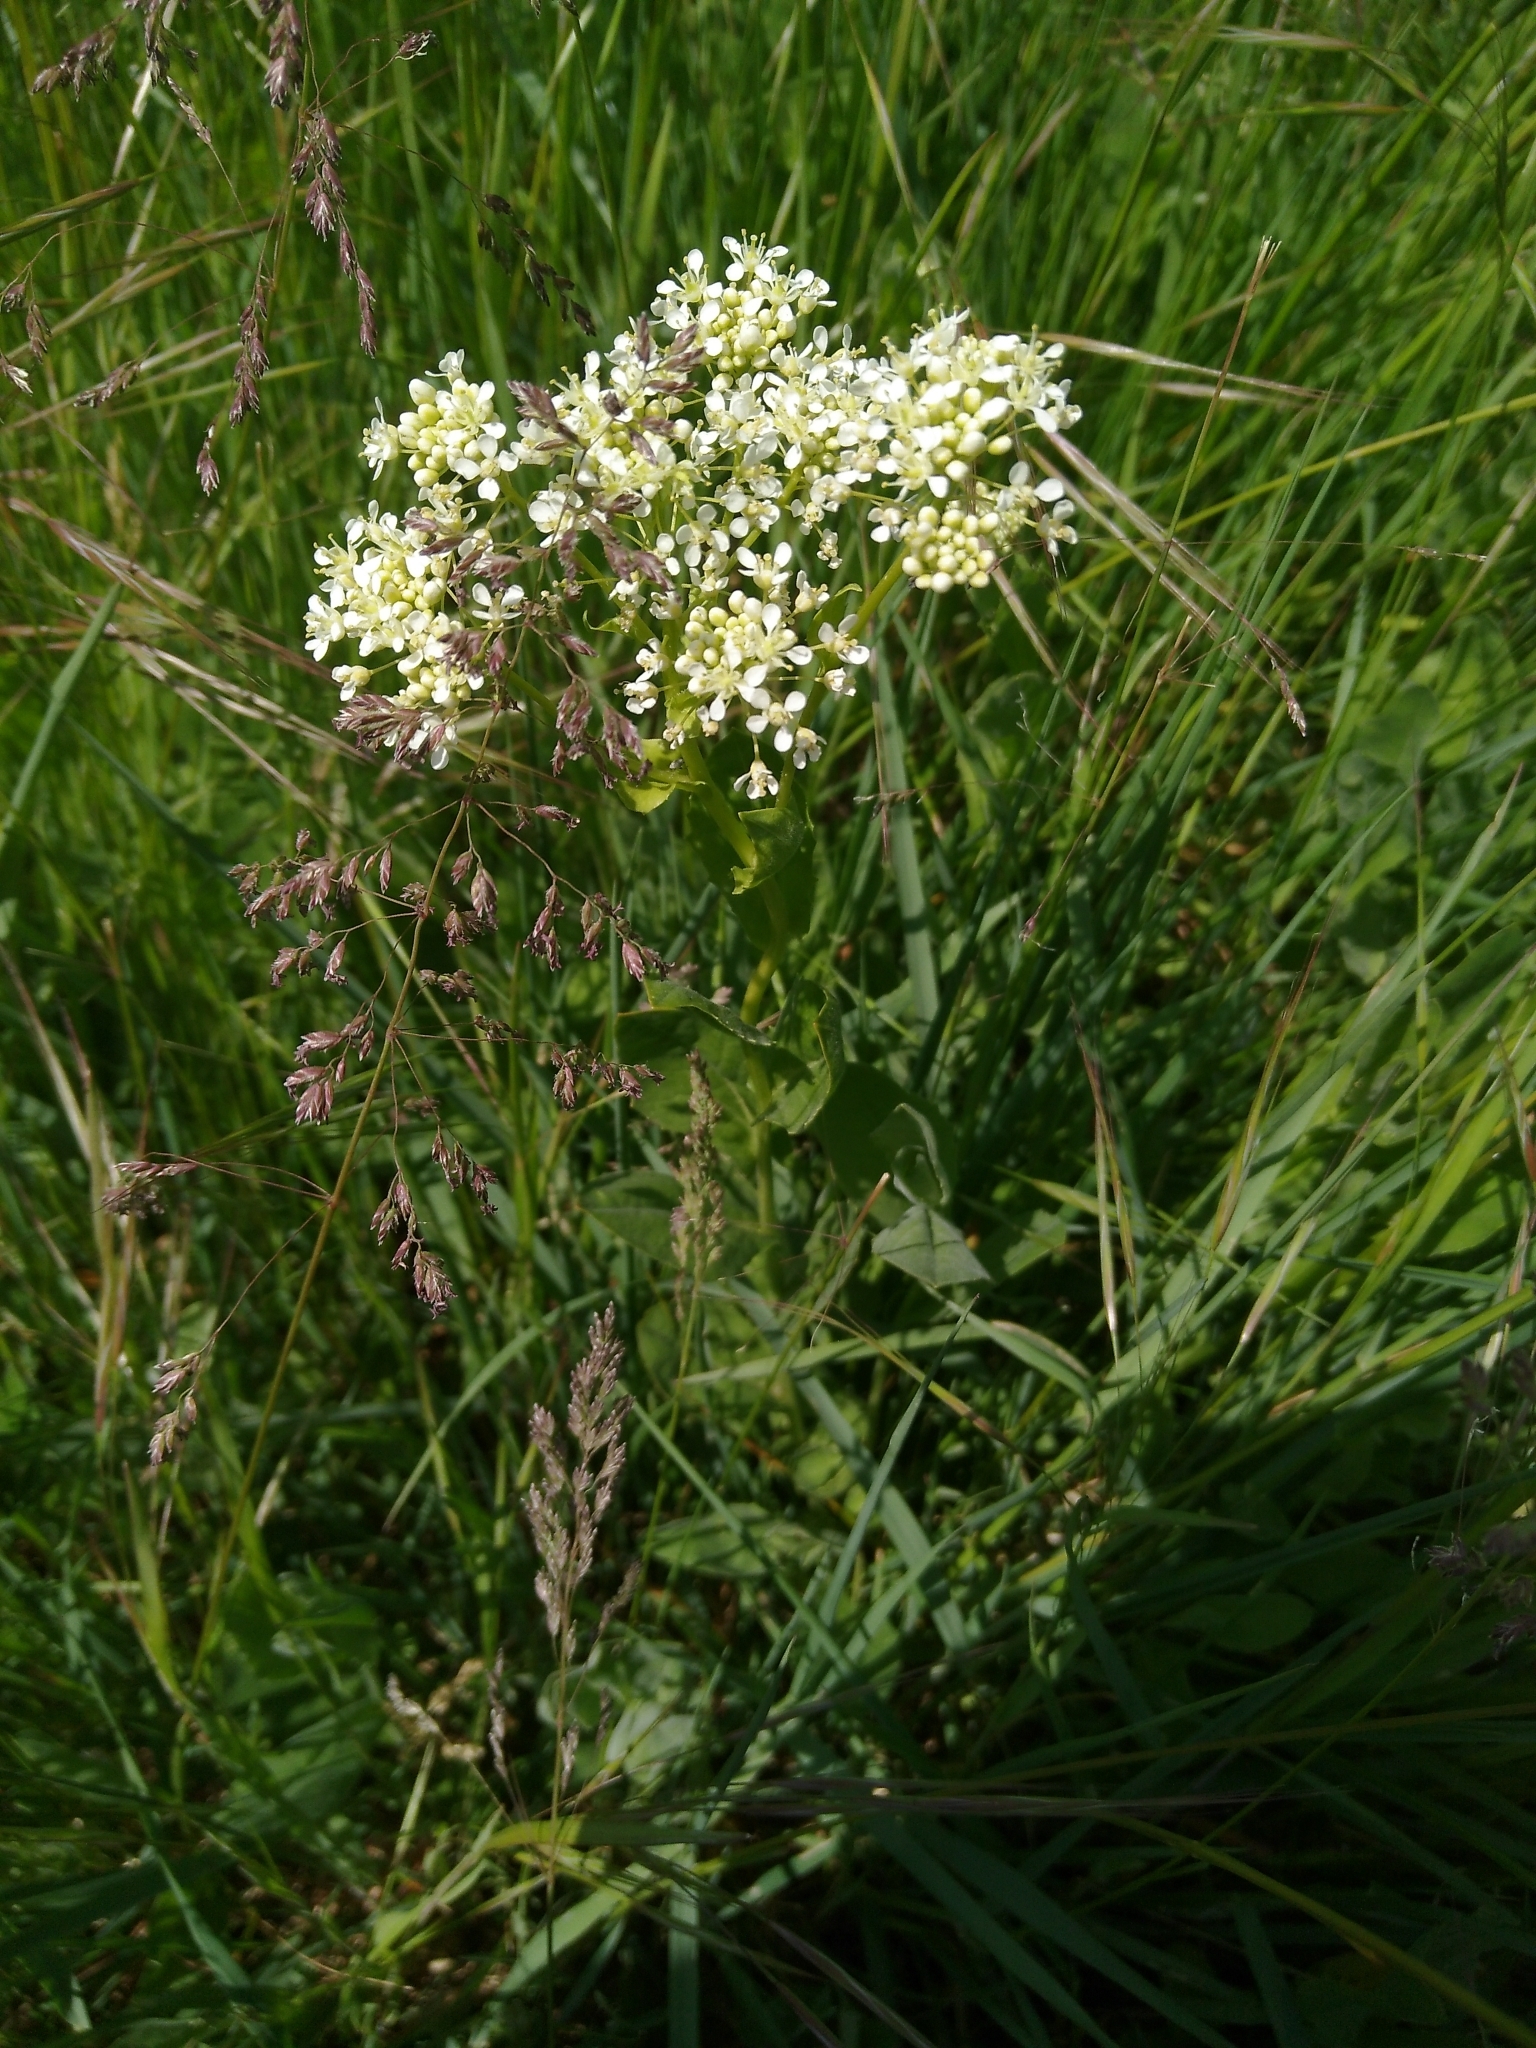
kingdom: Plantae
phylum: Tracheophyta
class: Magnoliopsida
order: Brassicales
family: Brassicaceae
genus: Lepidium
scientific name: Lepidium draba
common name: Hoary cress
